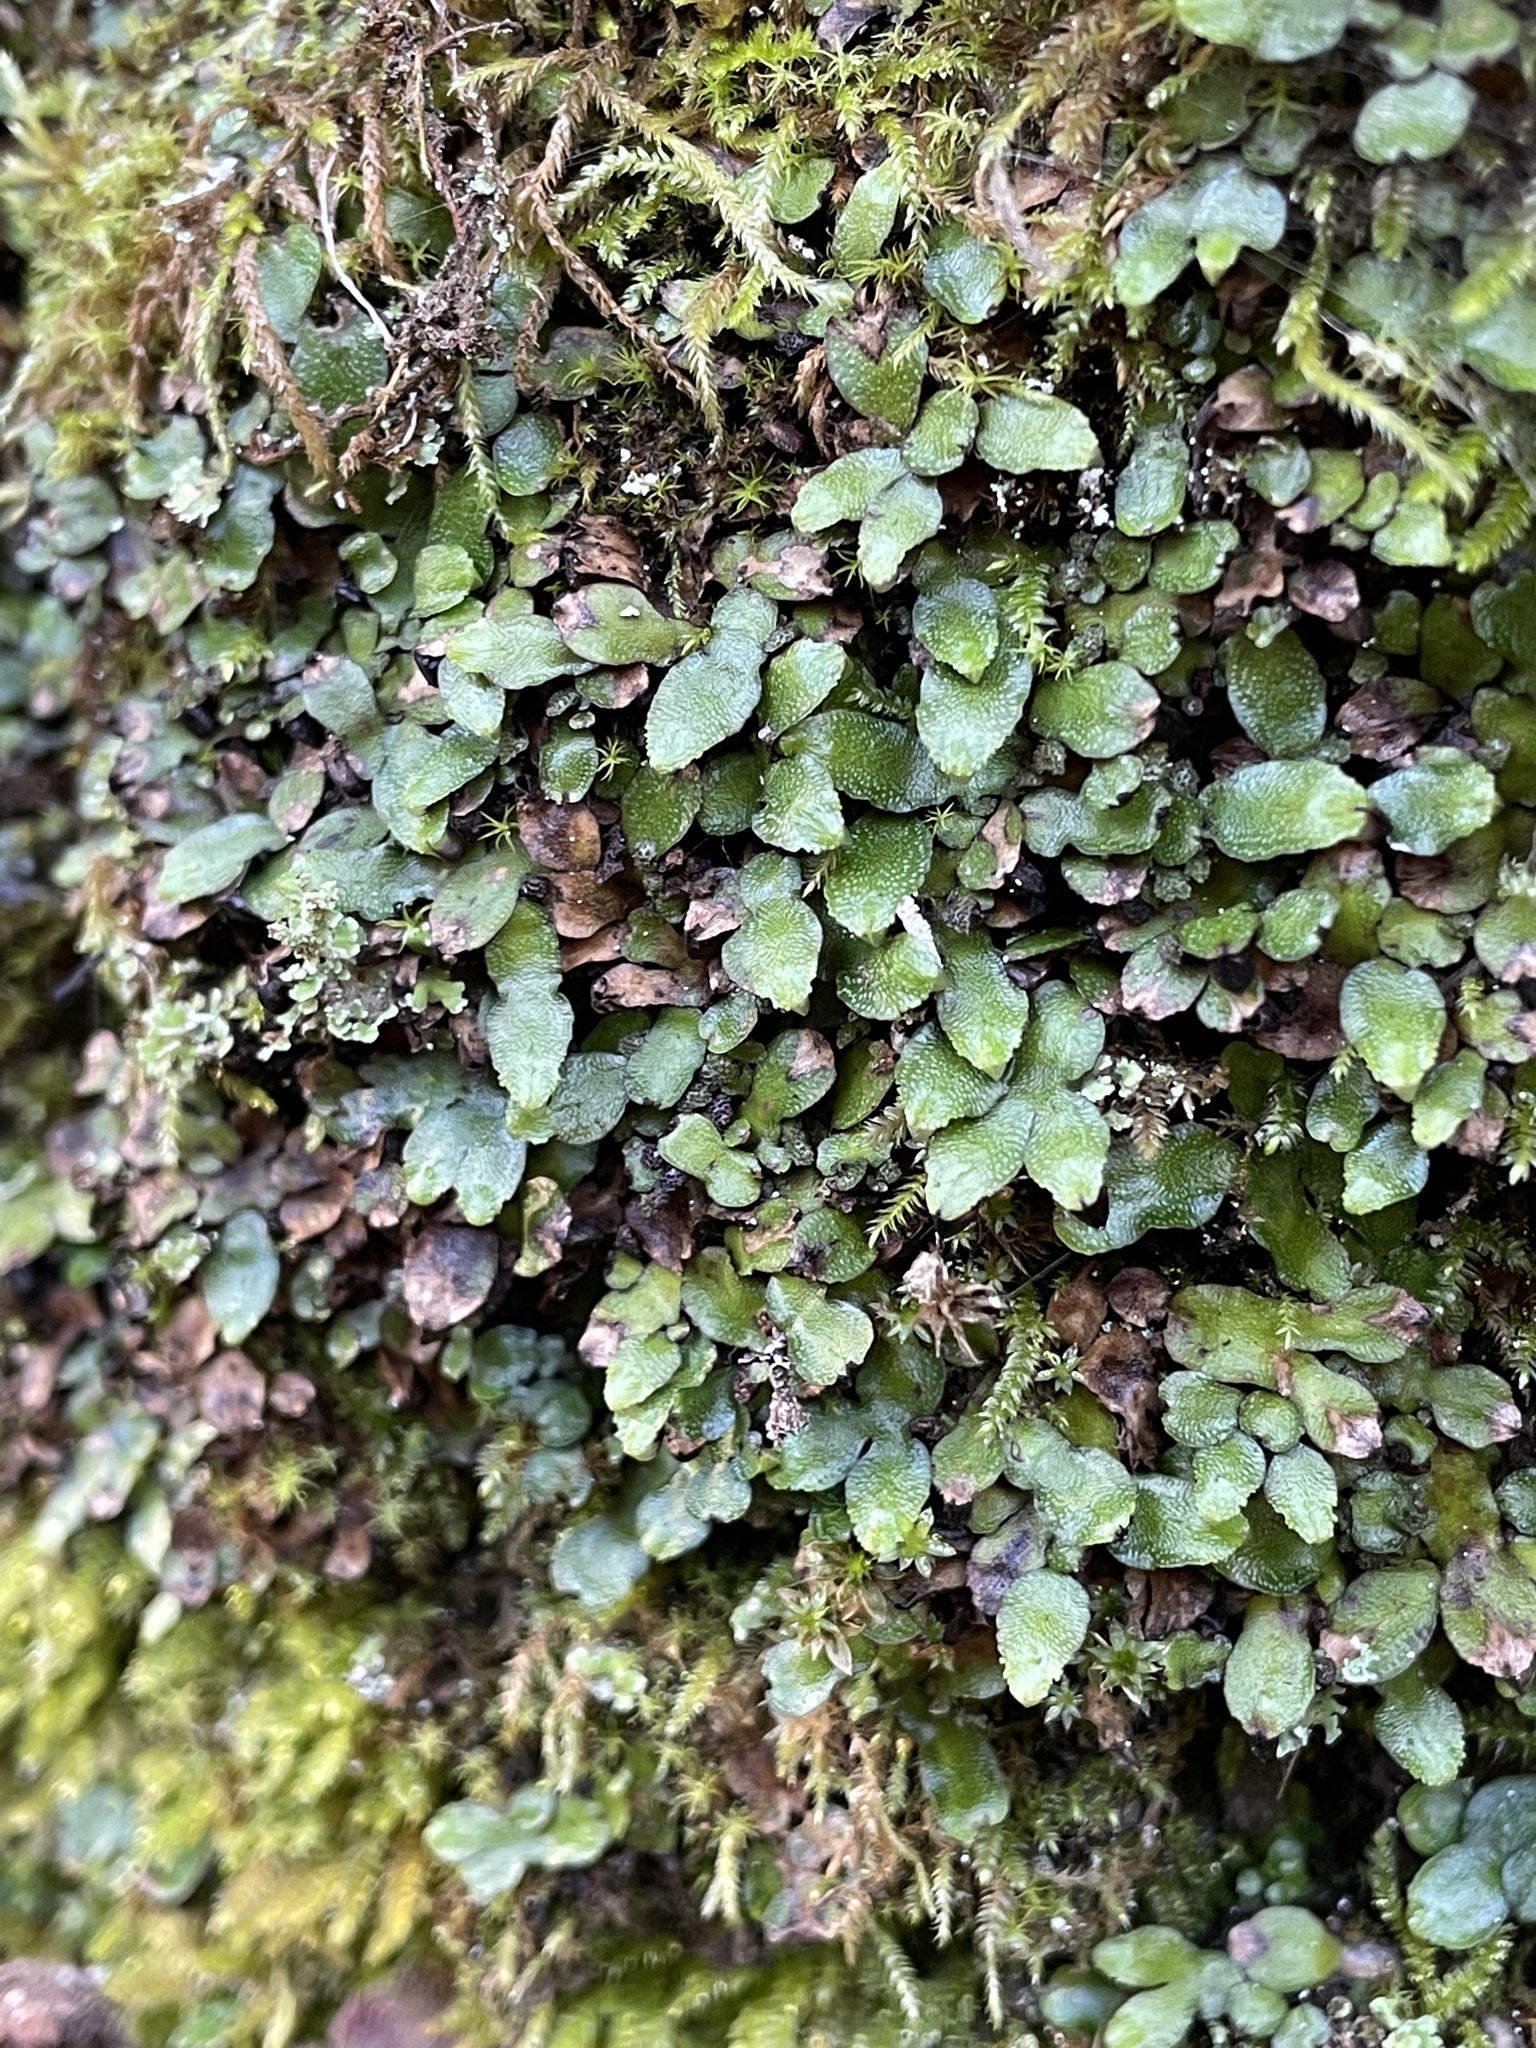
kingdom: Plantae
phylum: Marchantiophyta
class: Marchantiopsida
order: Marchantiales
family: Targioniaceae
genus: Targionia
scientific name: Targionia hypophylla
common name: Orobus-seed liverwort
